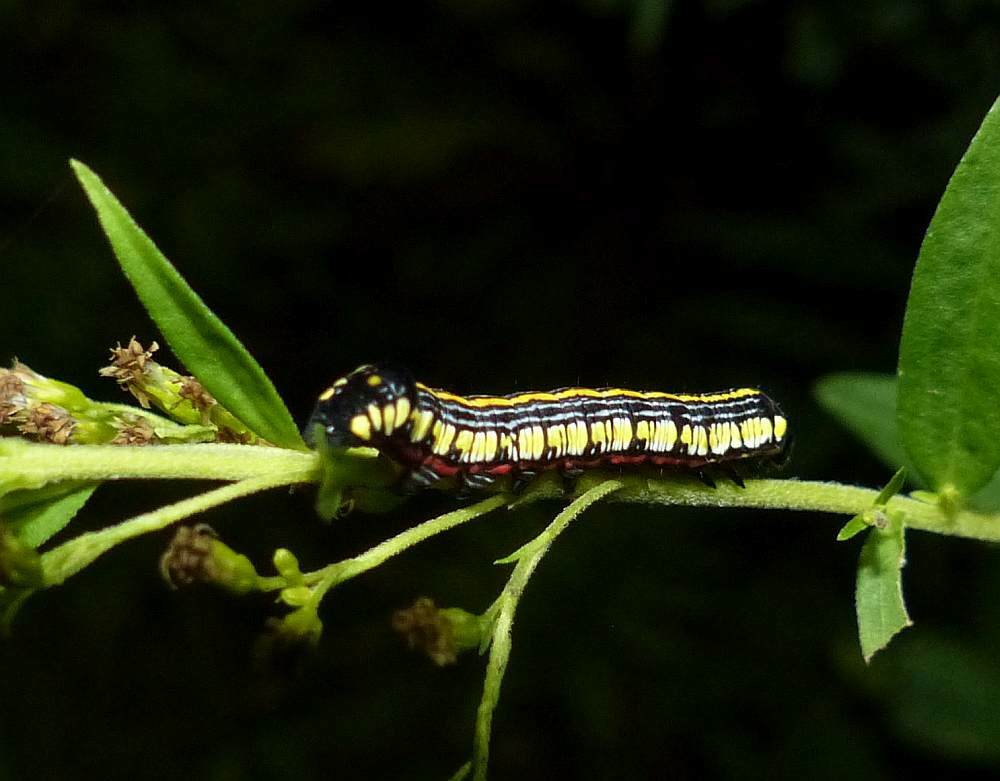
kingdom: Animalia
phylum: Arthropoda
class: Insecta
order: Lepidoptera
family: Noctuidae
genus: Cucullia
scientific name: Cucullia convexipennis
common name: Brown-hooded owlet
